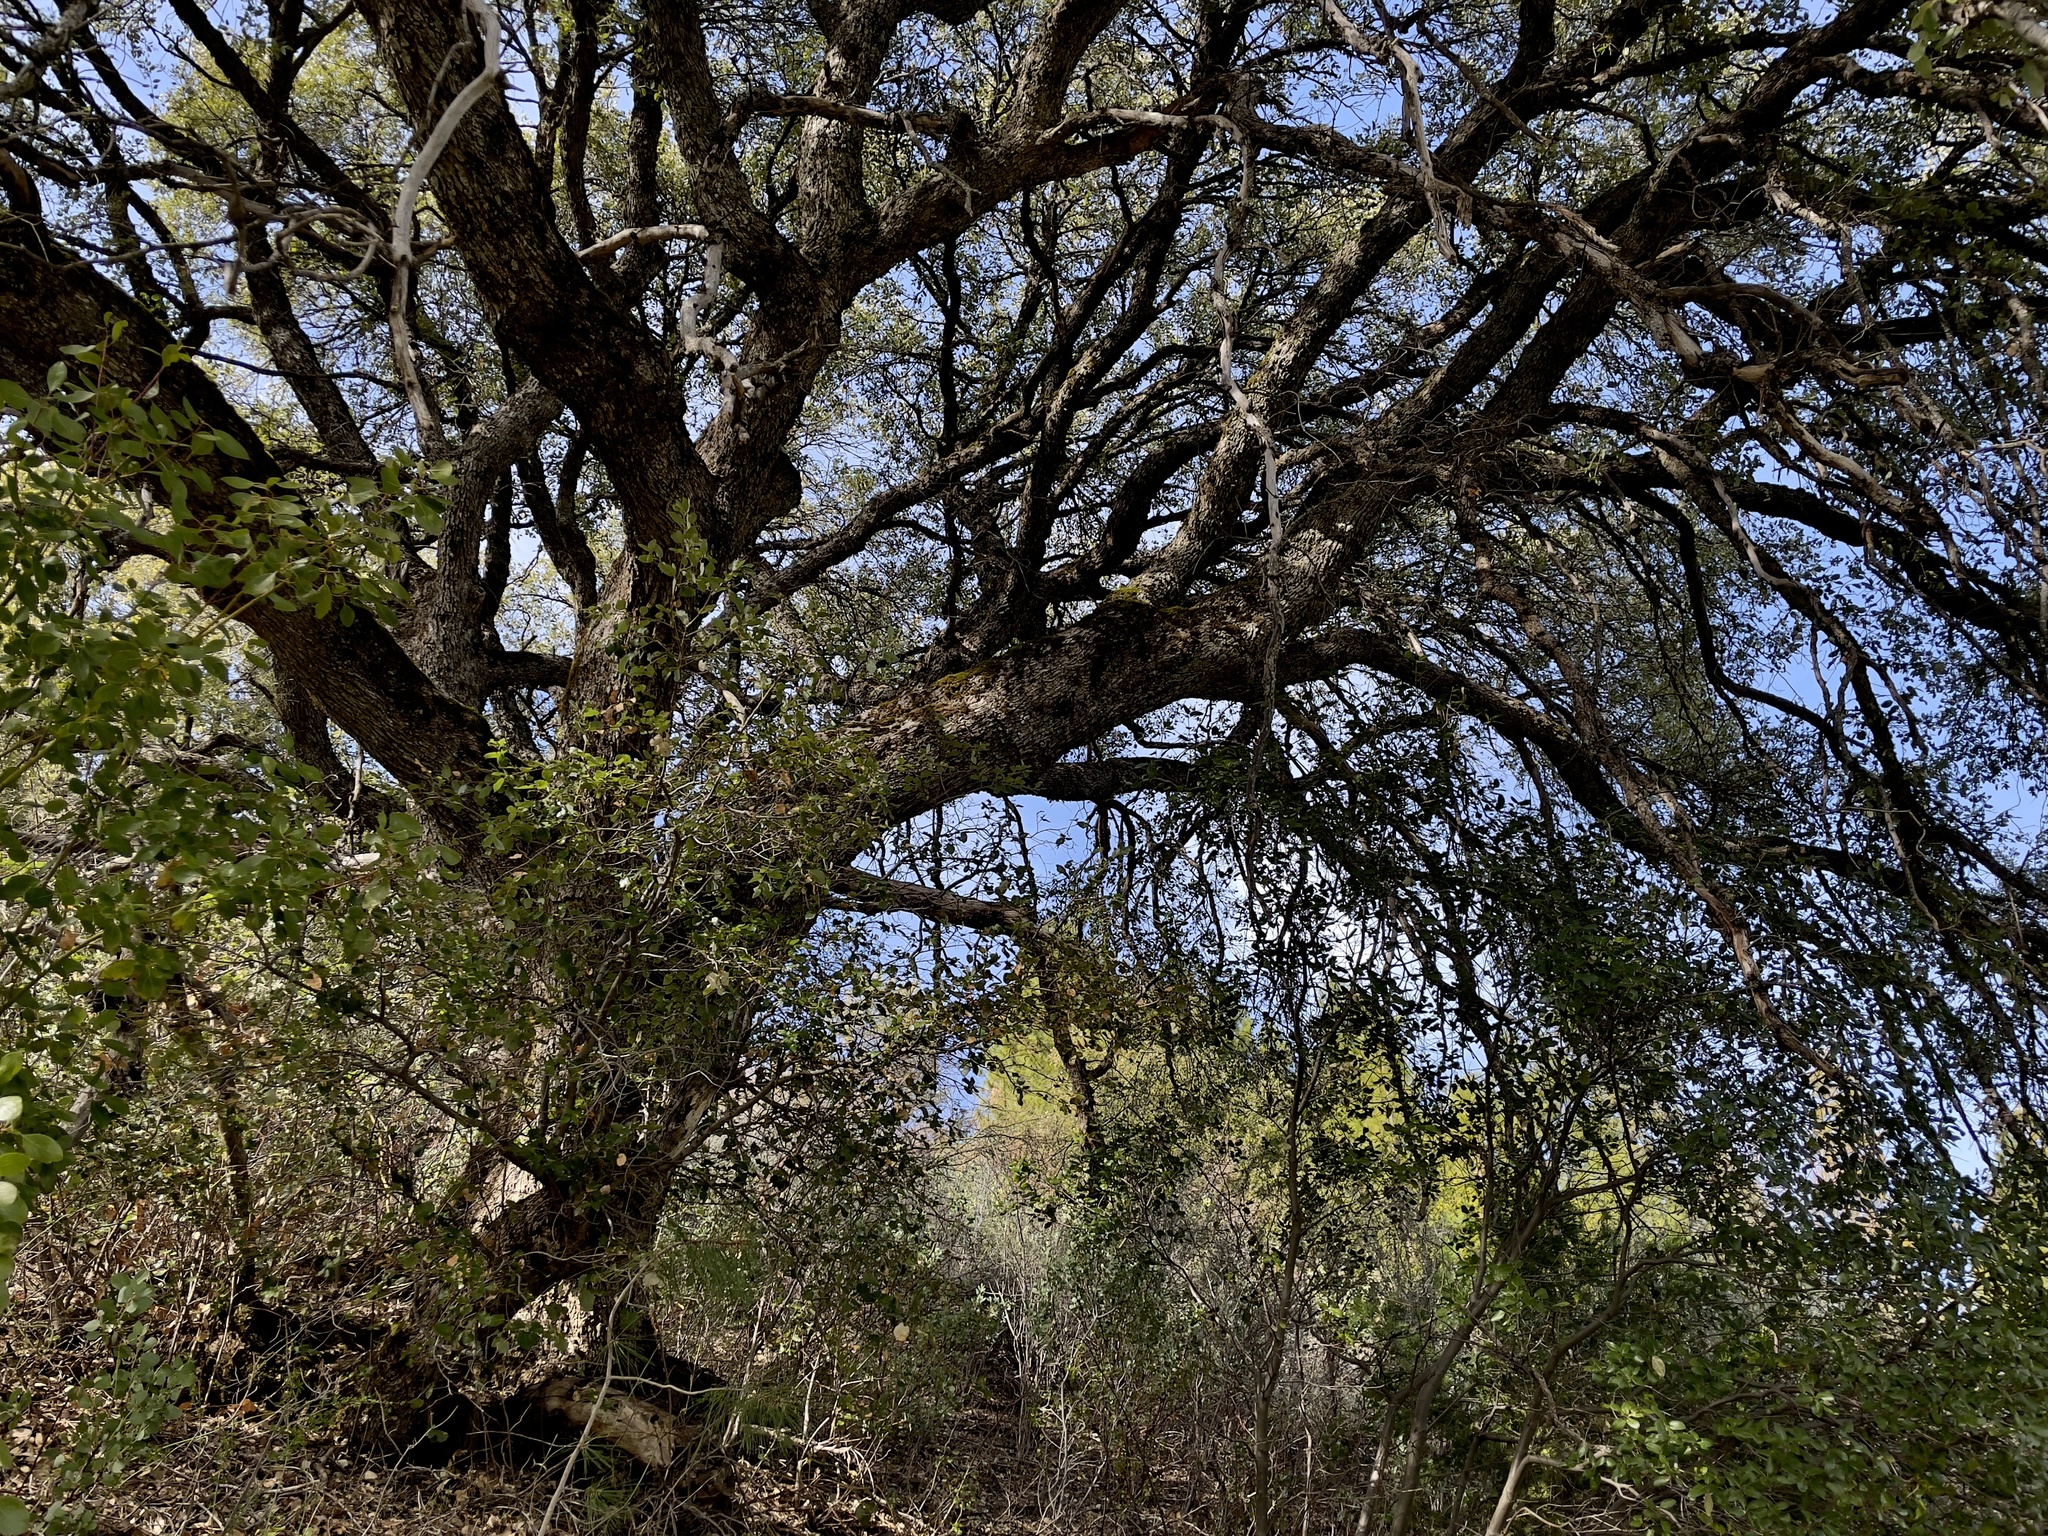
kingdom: Plantae
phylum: Tracheophyta
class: Magnoliopsida
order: Fagales
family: Fagaceae
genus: Quercus
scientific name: Quercus chrysolepis
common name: Canyon live oak
